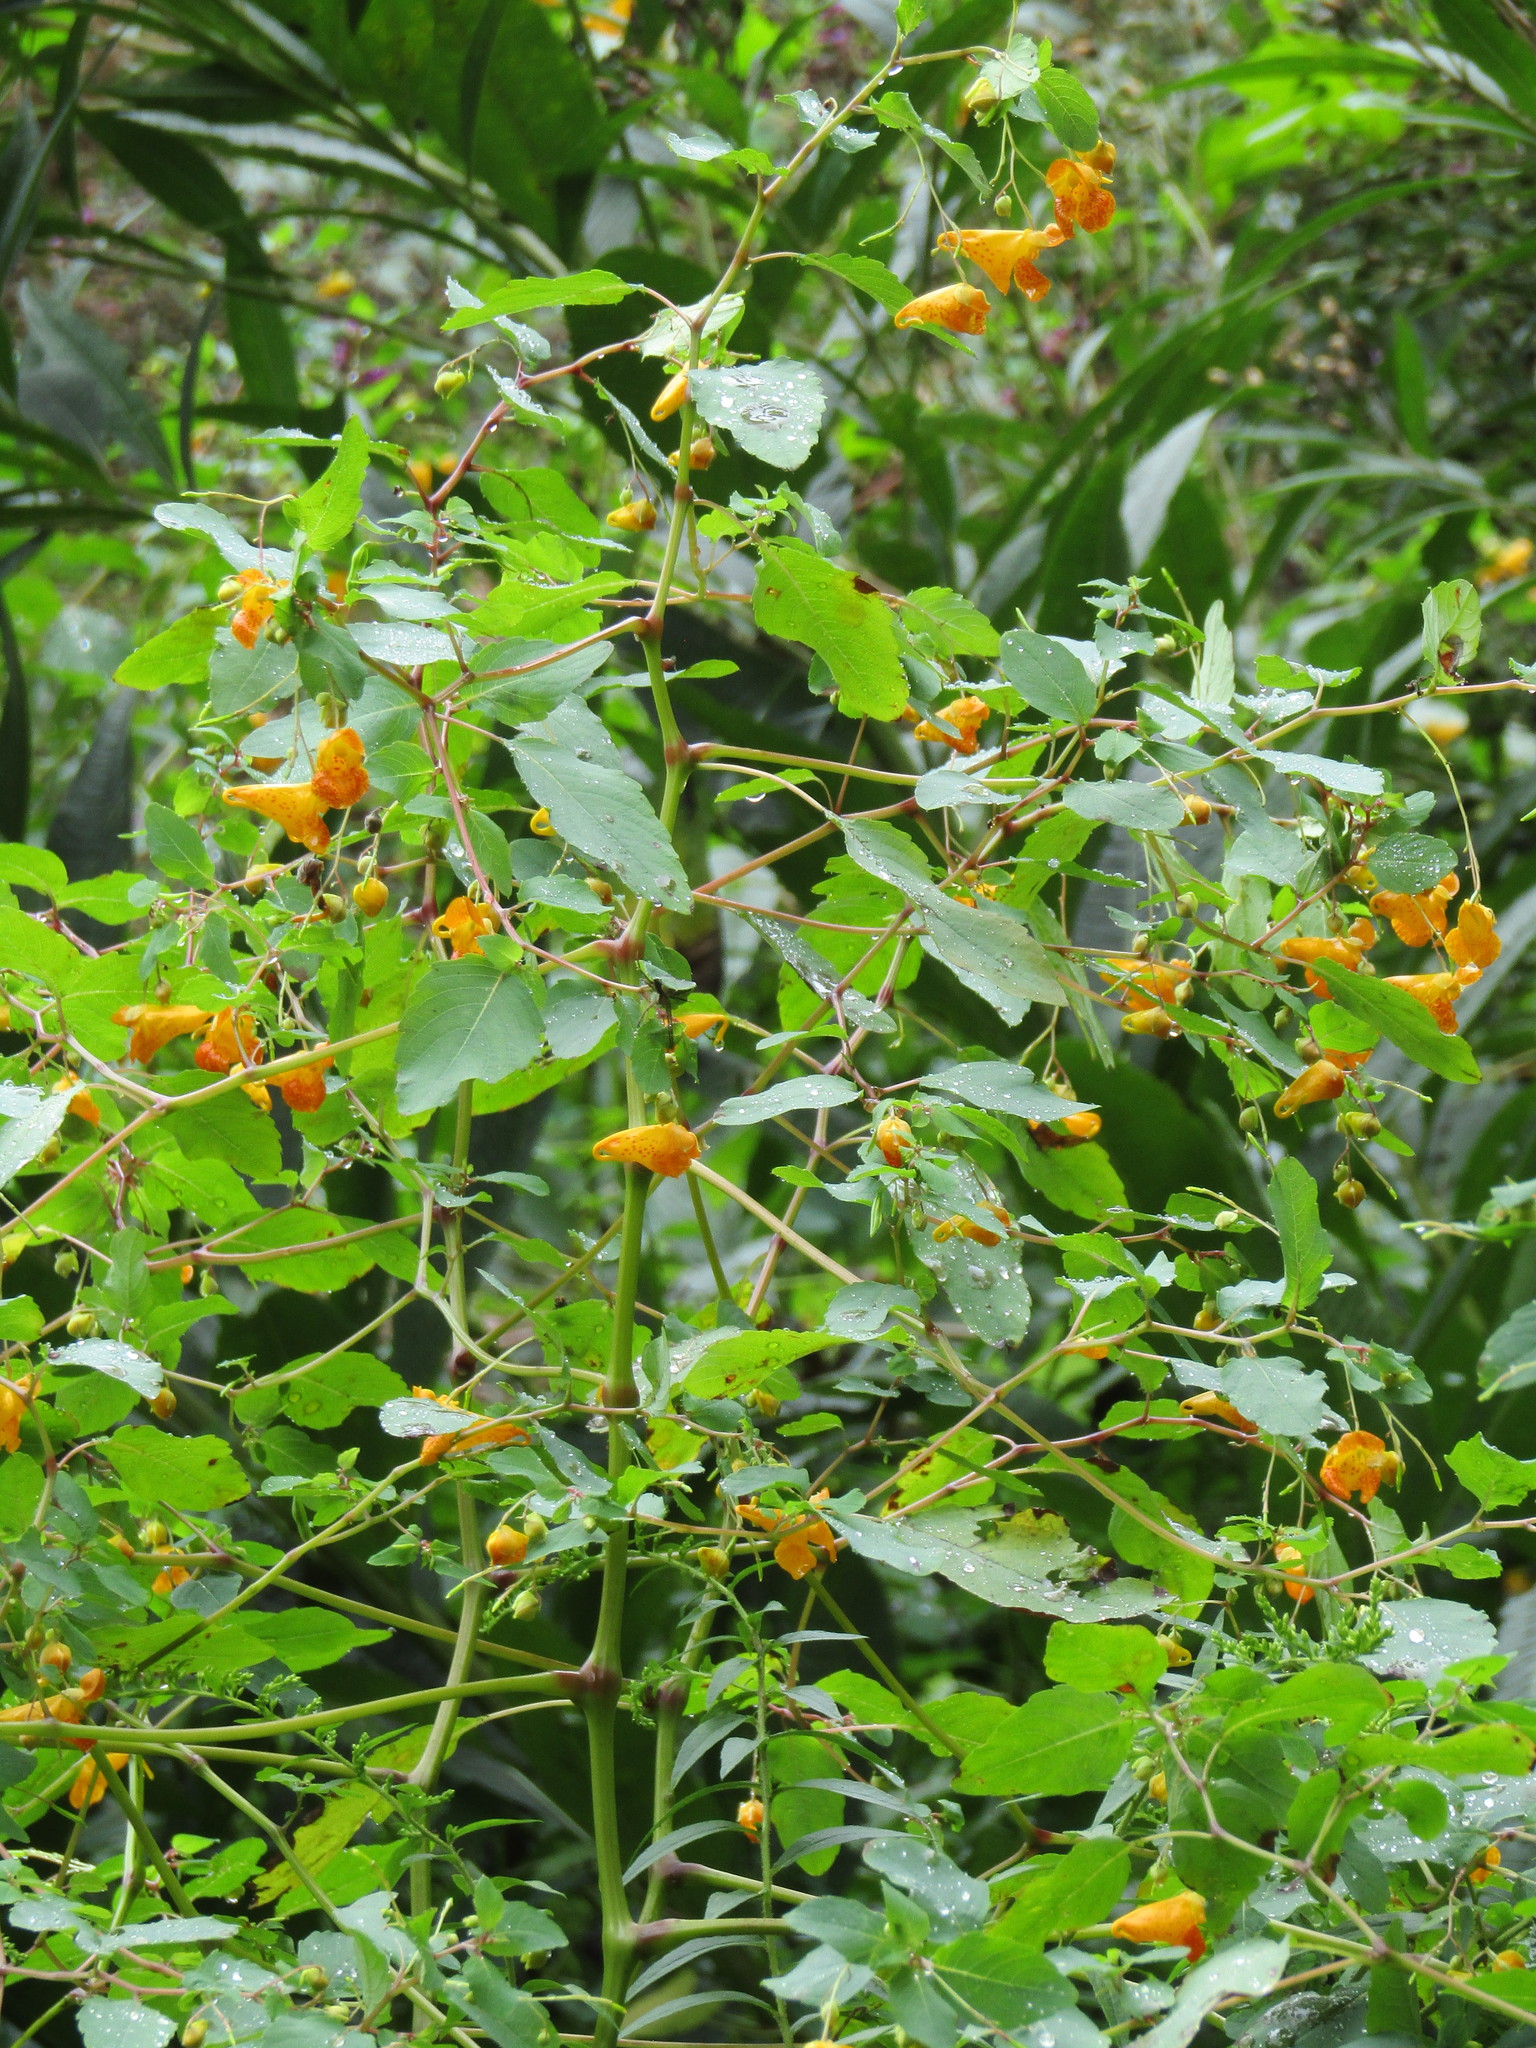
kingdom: Plantae
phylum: Tracheophyta
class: Magnoliopsida
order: Ericales
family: Balsaminaceae
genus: Impatiens
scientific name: Impatiens capensis
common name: Orange balsam
